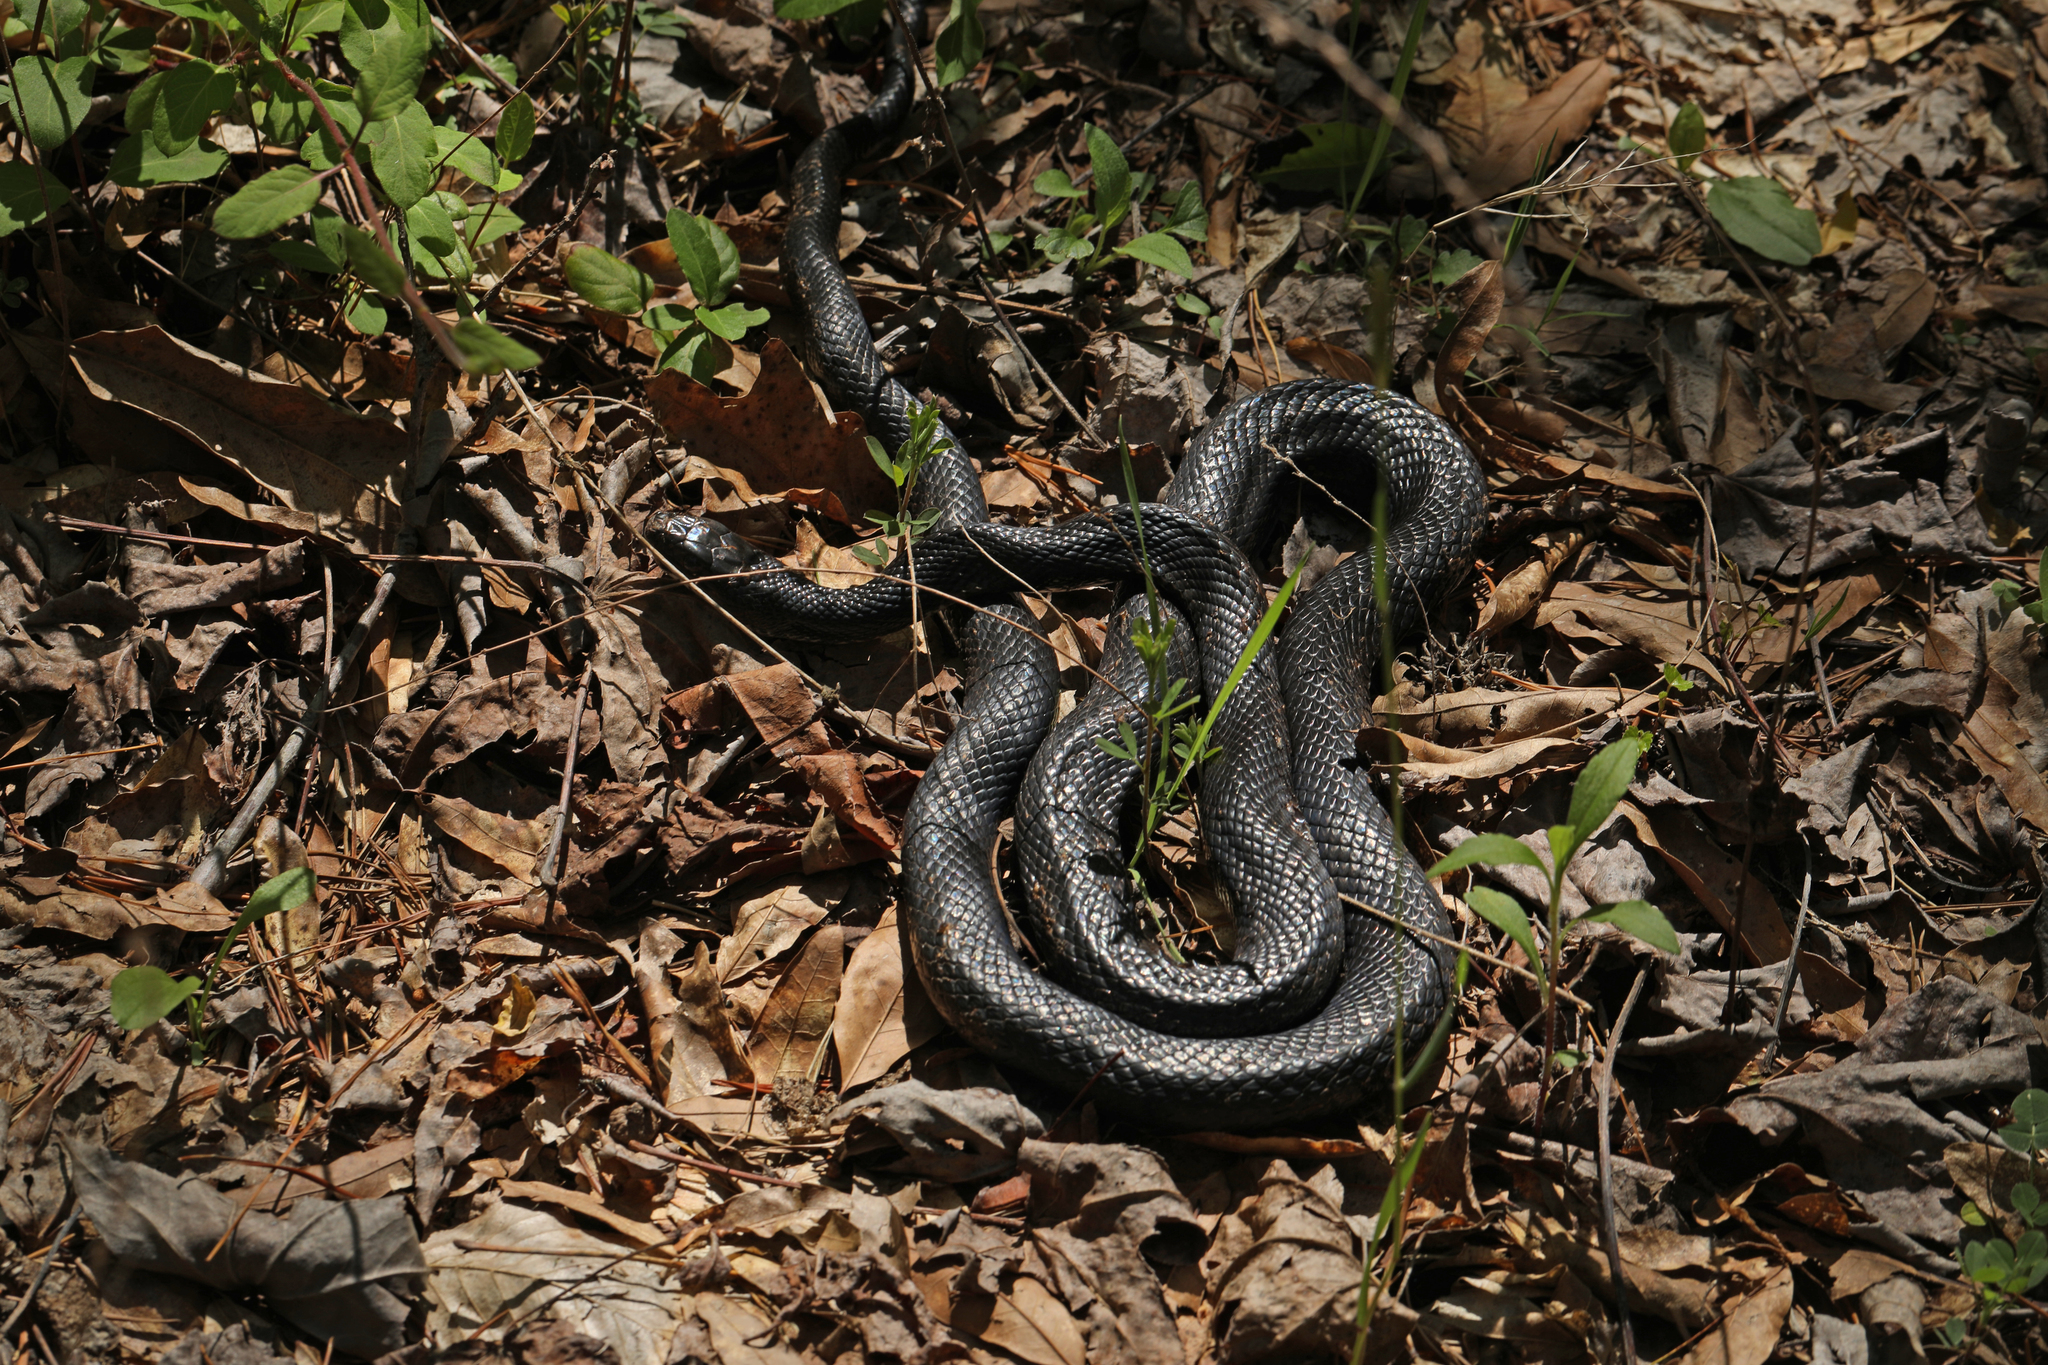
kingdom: Animalia
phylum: Chordata
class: Squamata
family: Colubridae
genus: Pantherophis
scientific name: Pantherophis alleghaniensis
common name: Eastern rat snake
